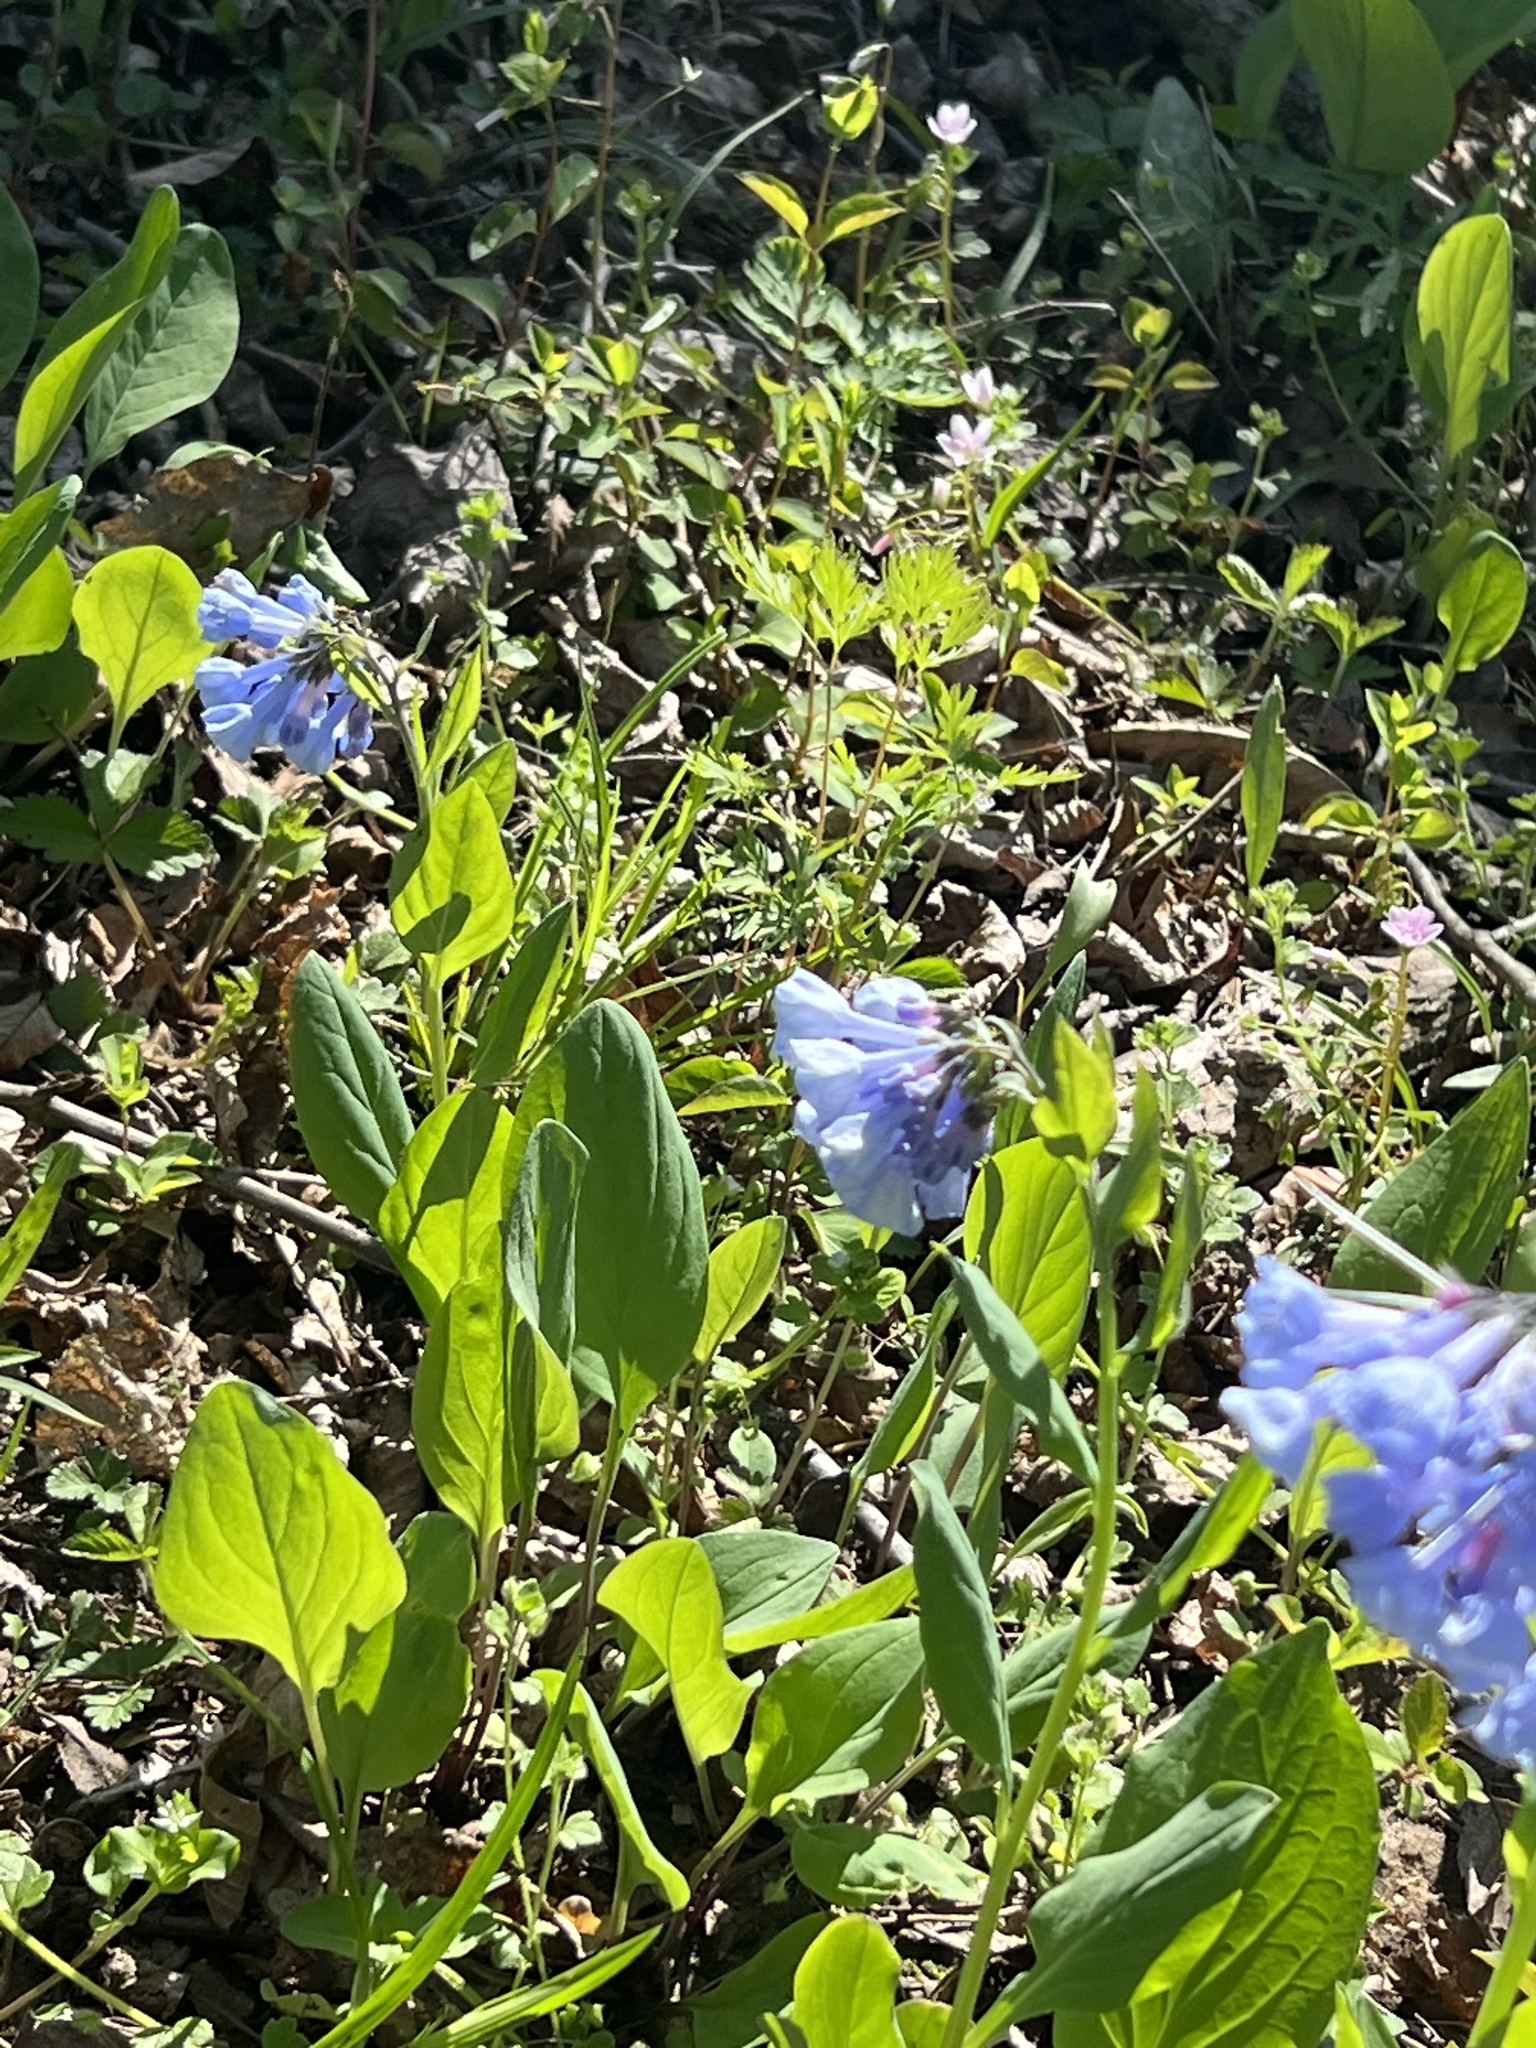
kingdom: Plantae
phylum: Tracheophyta
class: Magnoliopsida
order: Boraginales
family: Boraginaceae
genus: Mertensia
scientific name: Mertensia virginica
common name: Virginia bluebells
